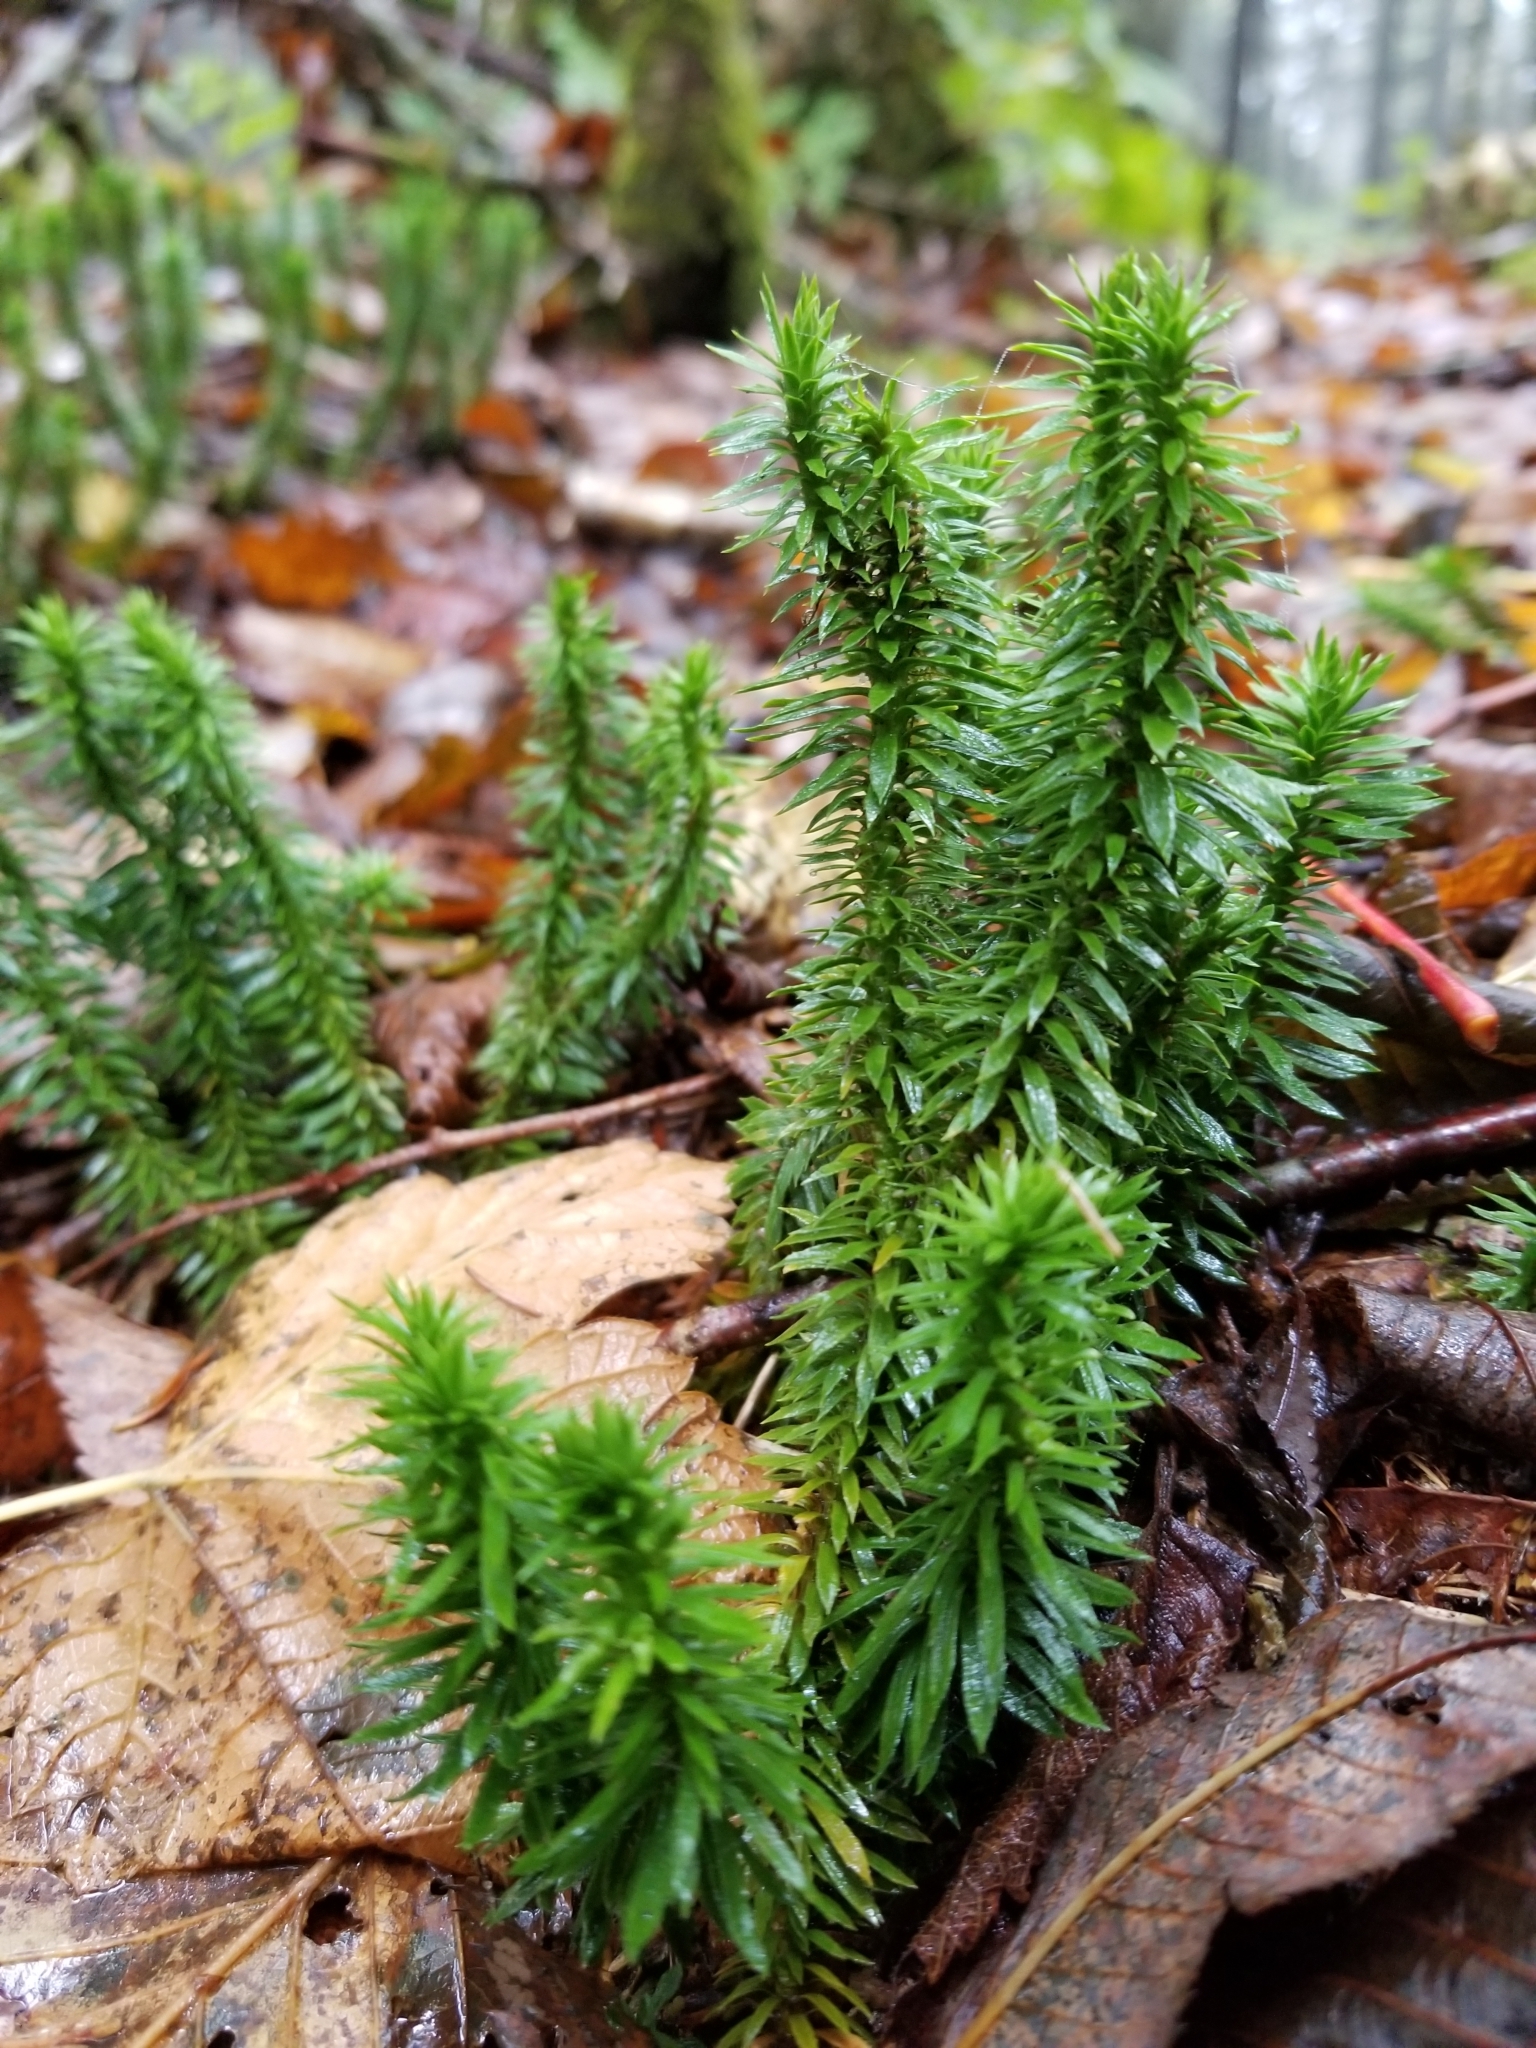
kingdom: Plantae
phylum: Tracheophyta
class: Lycopodiopsida
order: Lycopodiales
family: Lycopodiaceae
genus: Huperzia
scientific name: Huperzia lucidula
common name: Shining clubmoss
